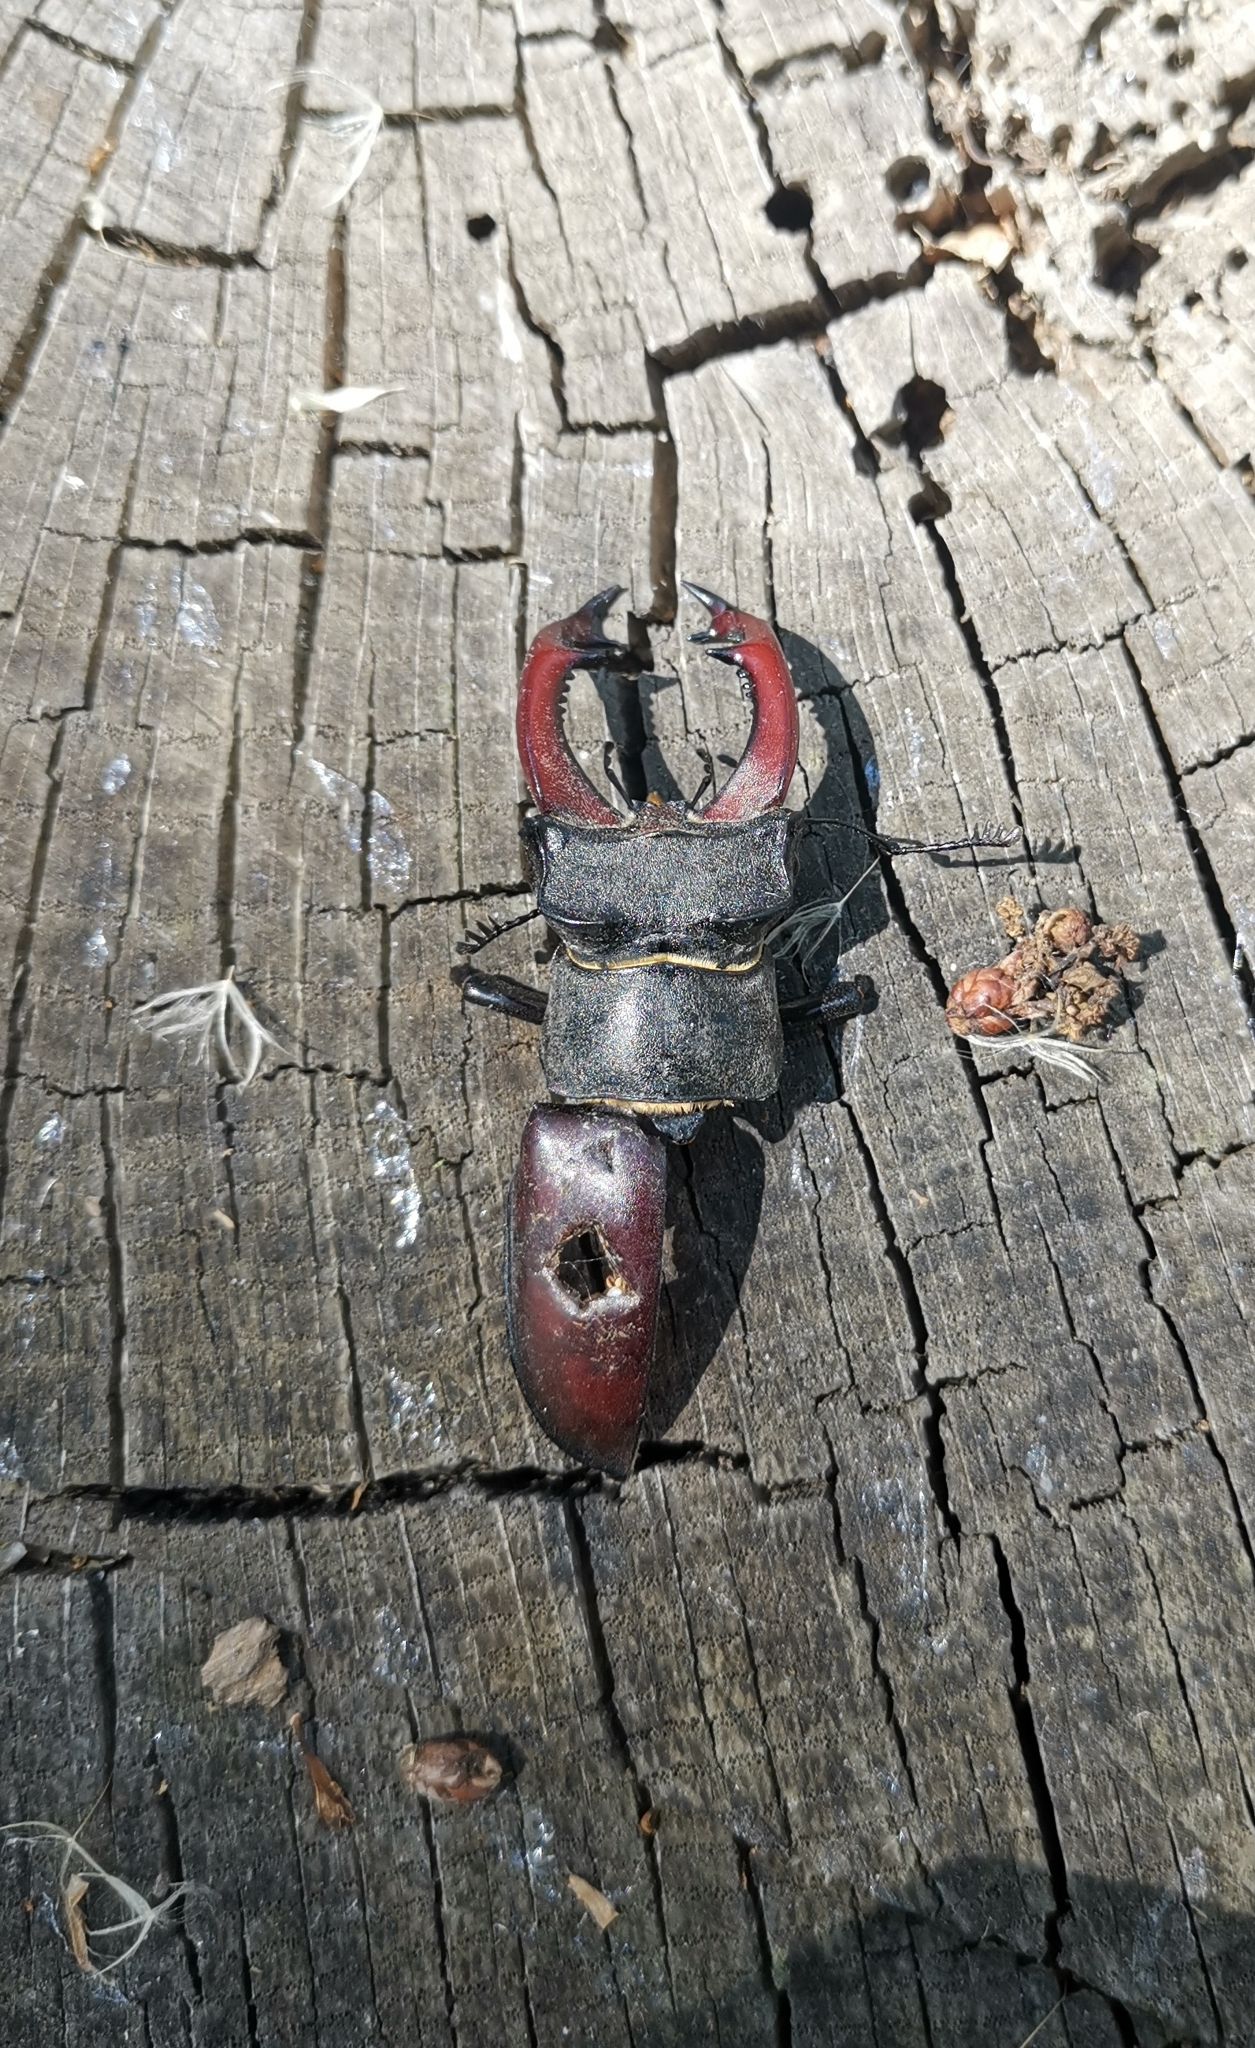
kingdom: Animalia
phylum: Arthropoda
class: Insecta
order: Coleoptera
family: Lucanidae
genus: Lucanus
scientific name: Lucanus cervus
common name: Stag beetle
